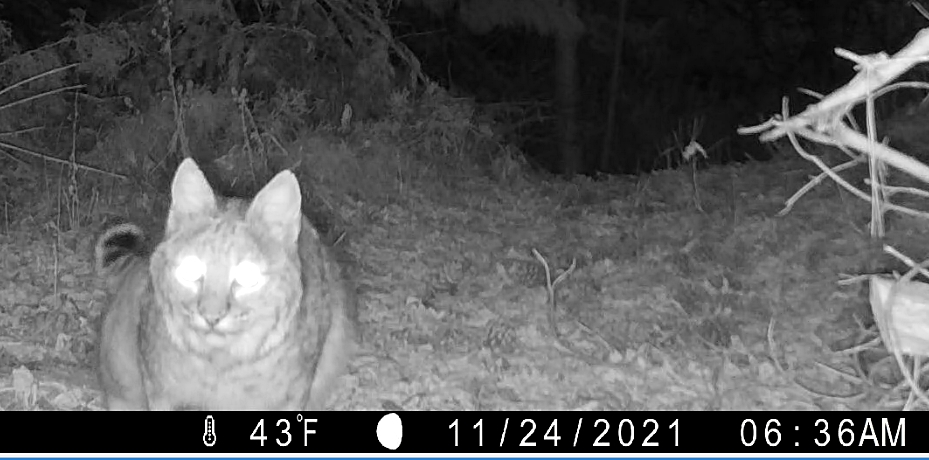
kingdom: Animalia
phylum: Chordata
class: Mammalia
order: Carnivora
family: Felidae
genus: Lynx
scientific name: Lynx rufus
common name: Bobcat
